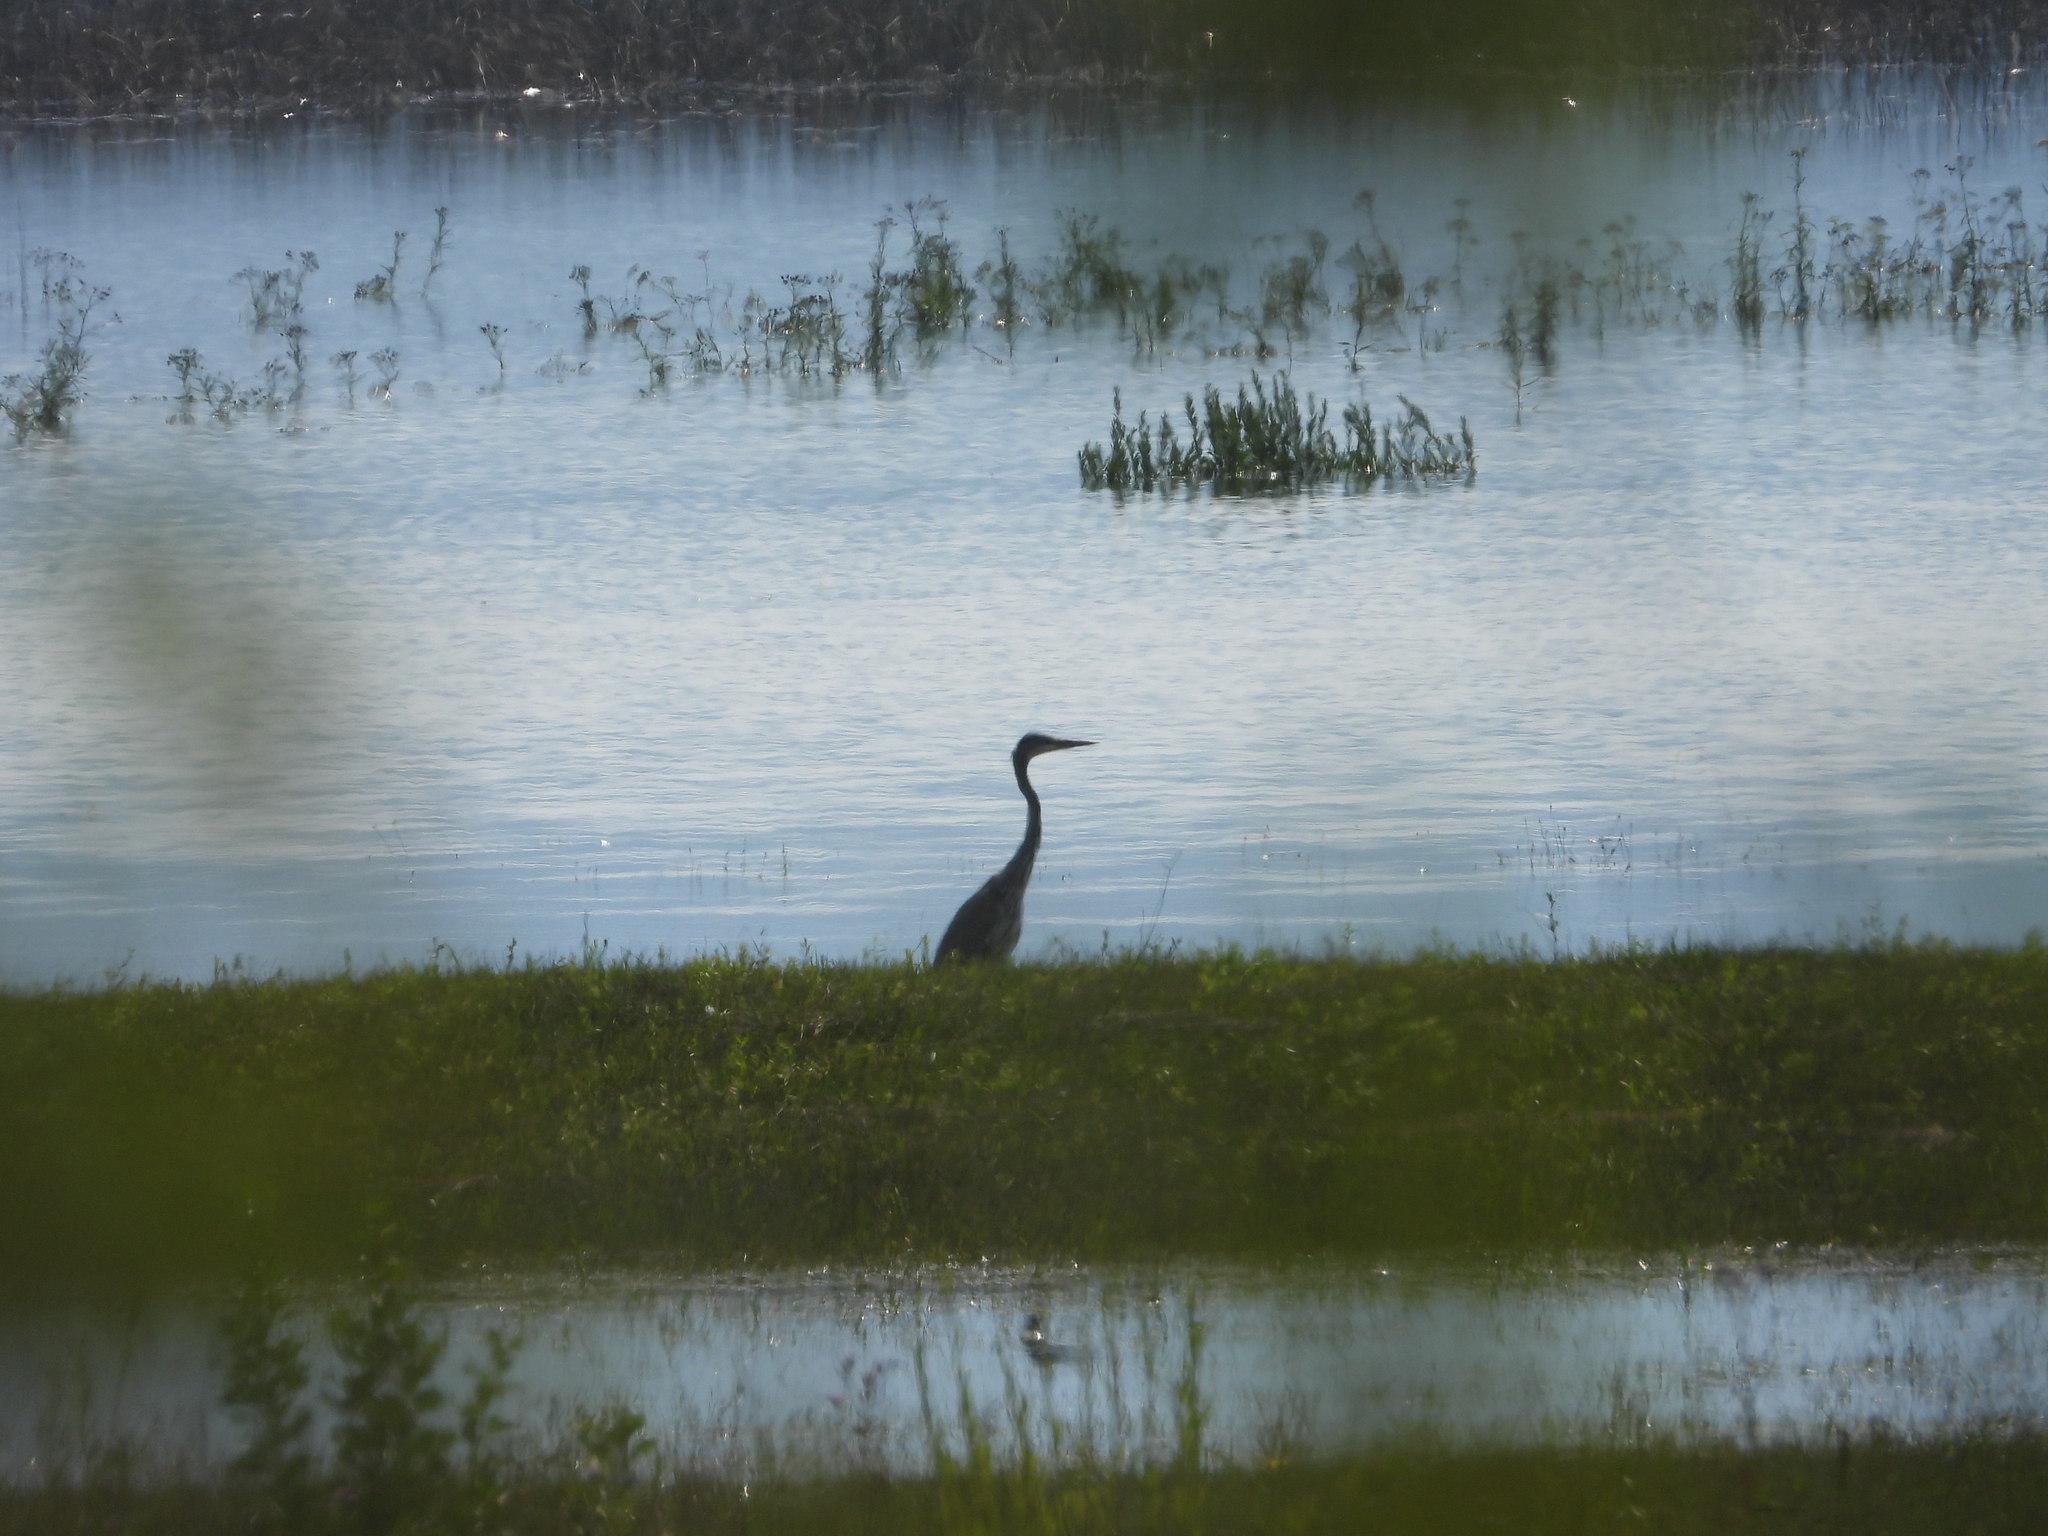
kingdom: Animalia
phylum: Chordata
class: Aves
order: Pelecaniformes
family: Ardeidae
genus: Ardea
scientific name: Ardea cinerea
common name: Grey heron
